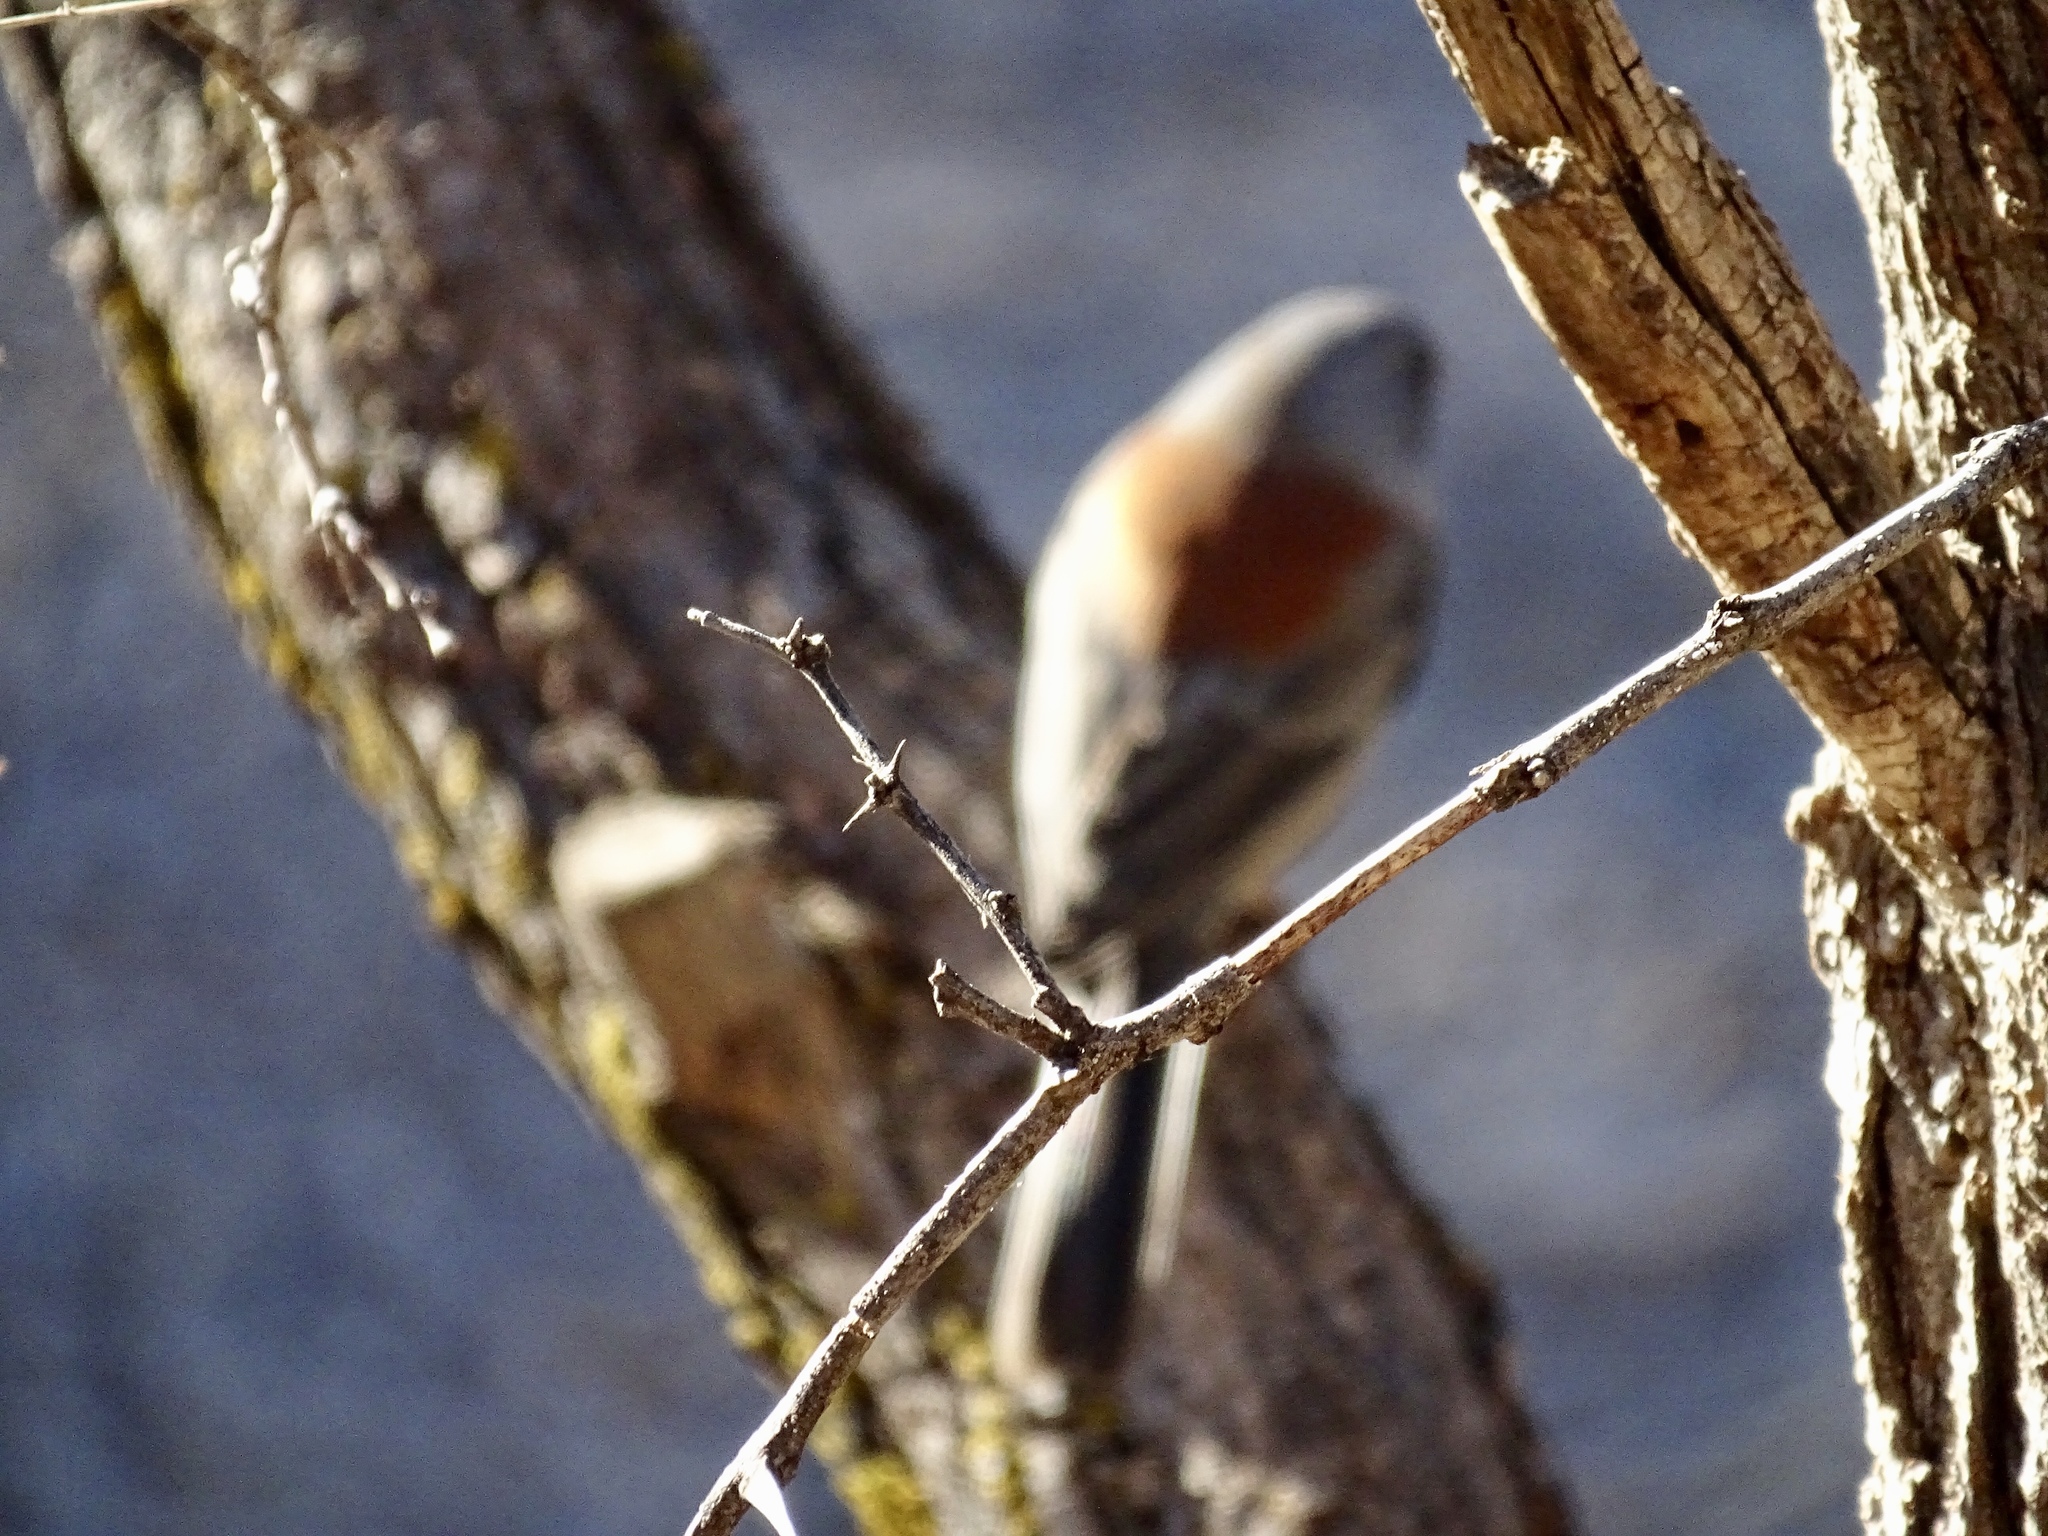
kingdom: Animalia
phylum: Chordata
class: Aves
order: Passeriformes
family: Passerellidae
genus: Junco
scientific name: Junco hyemalis
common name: Dark-eyed junco
